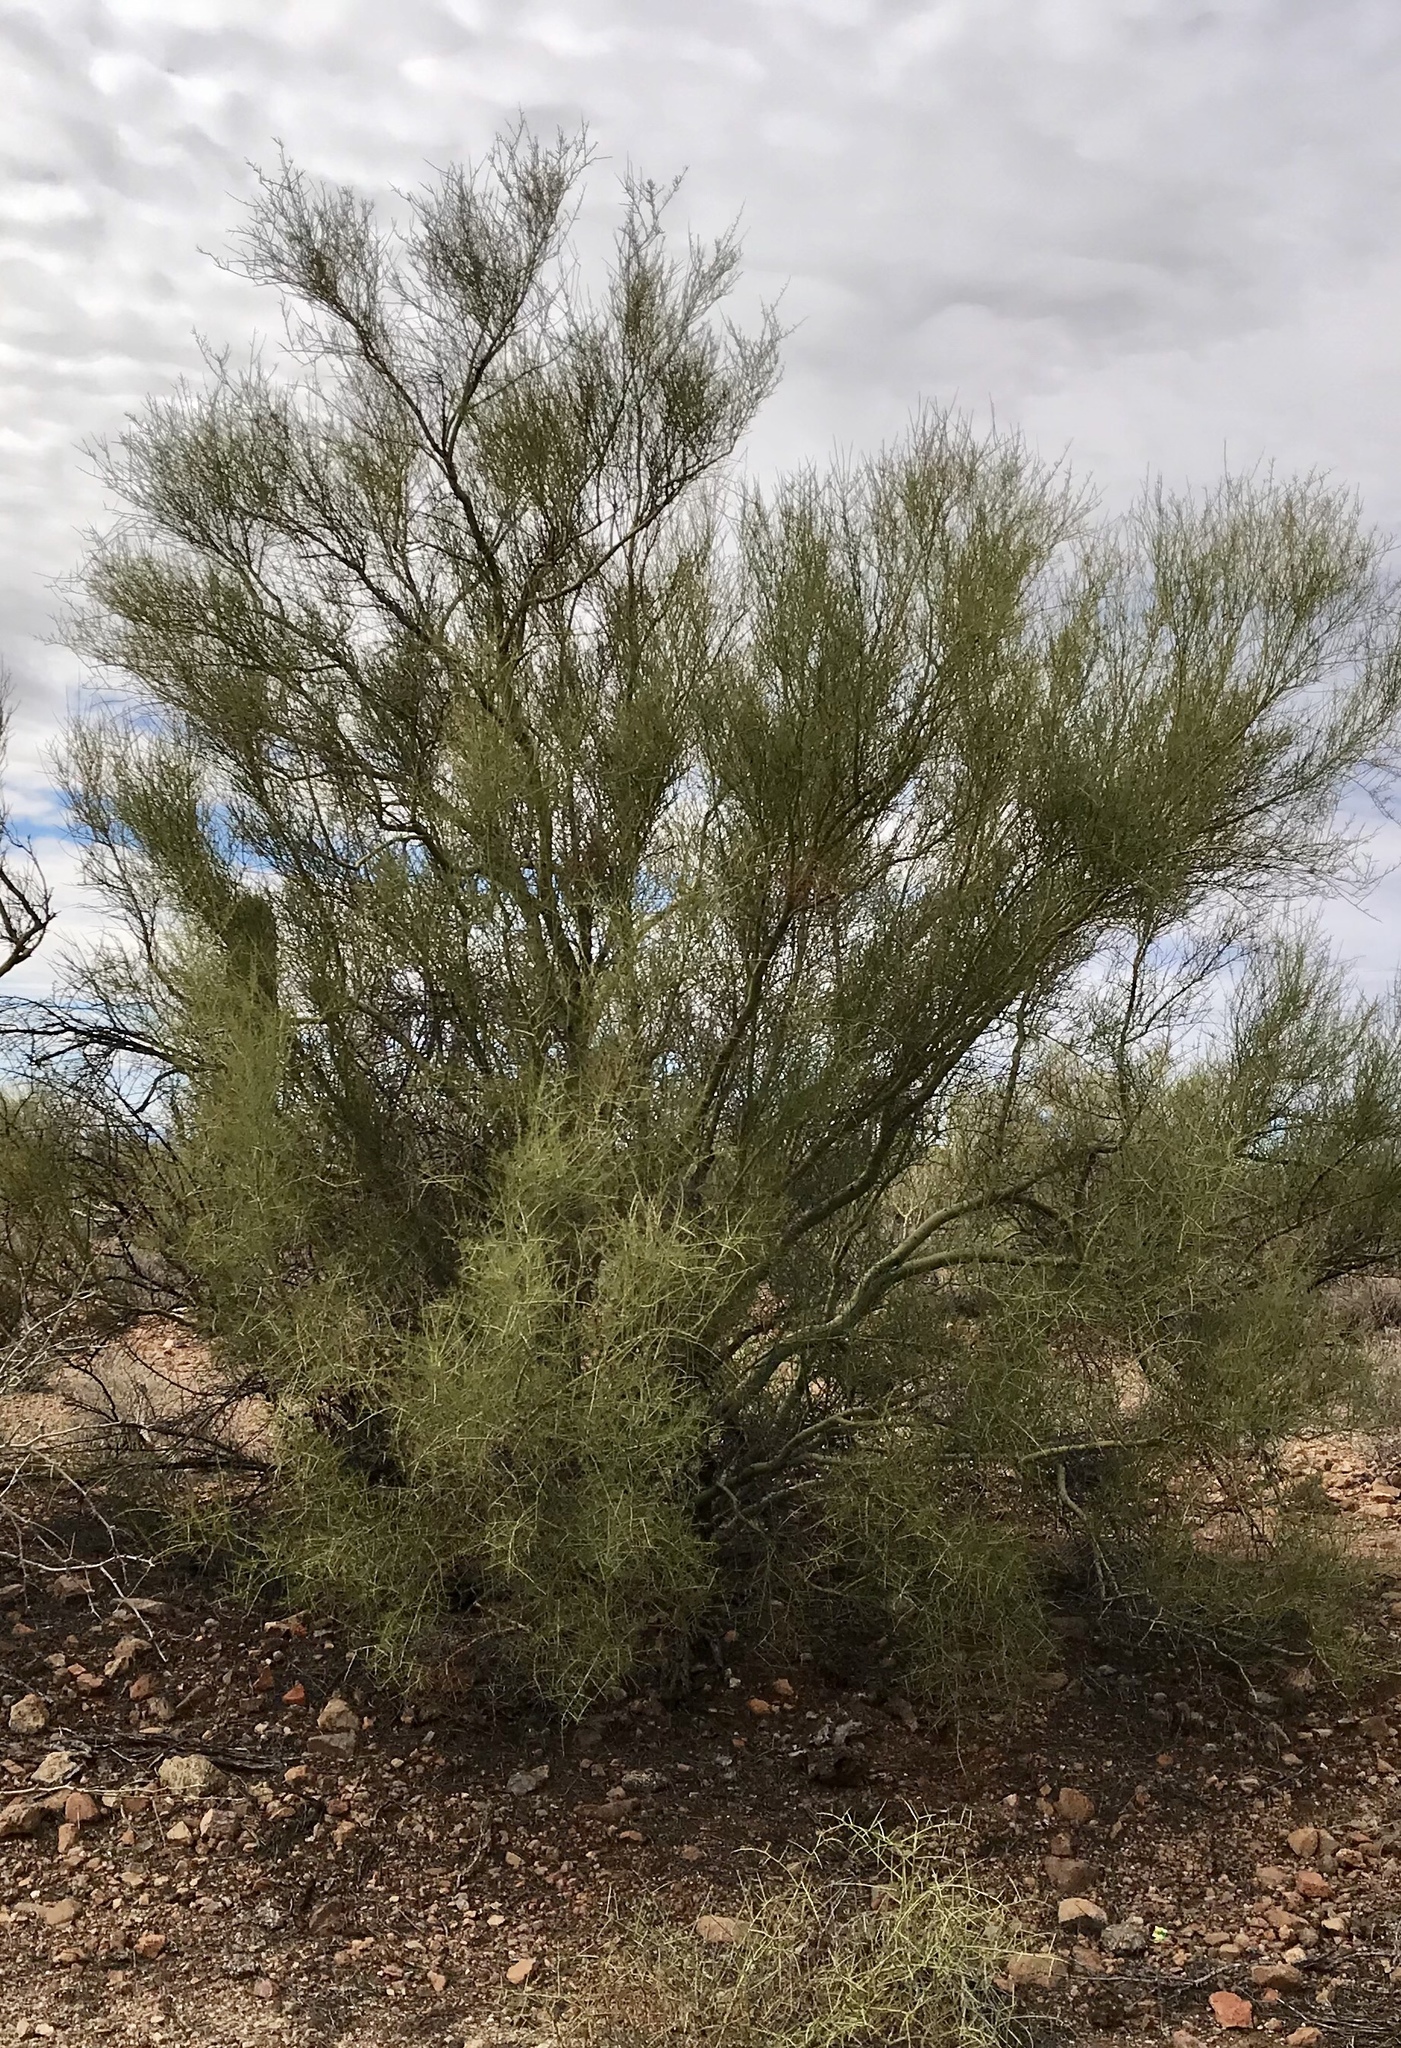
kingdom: Plantae
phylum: Tracheophyta
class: Magnoliopsida
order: Fabales
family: Fabaceae
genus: Parkinsonia
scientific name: Parkinsonia microphylla
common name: Yellow paloverde
